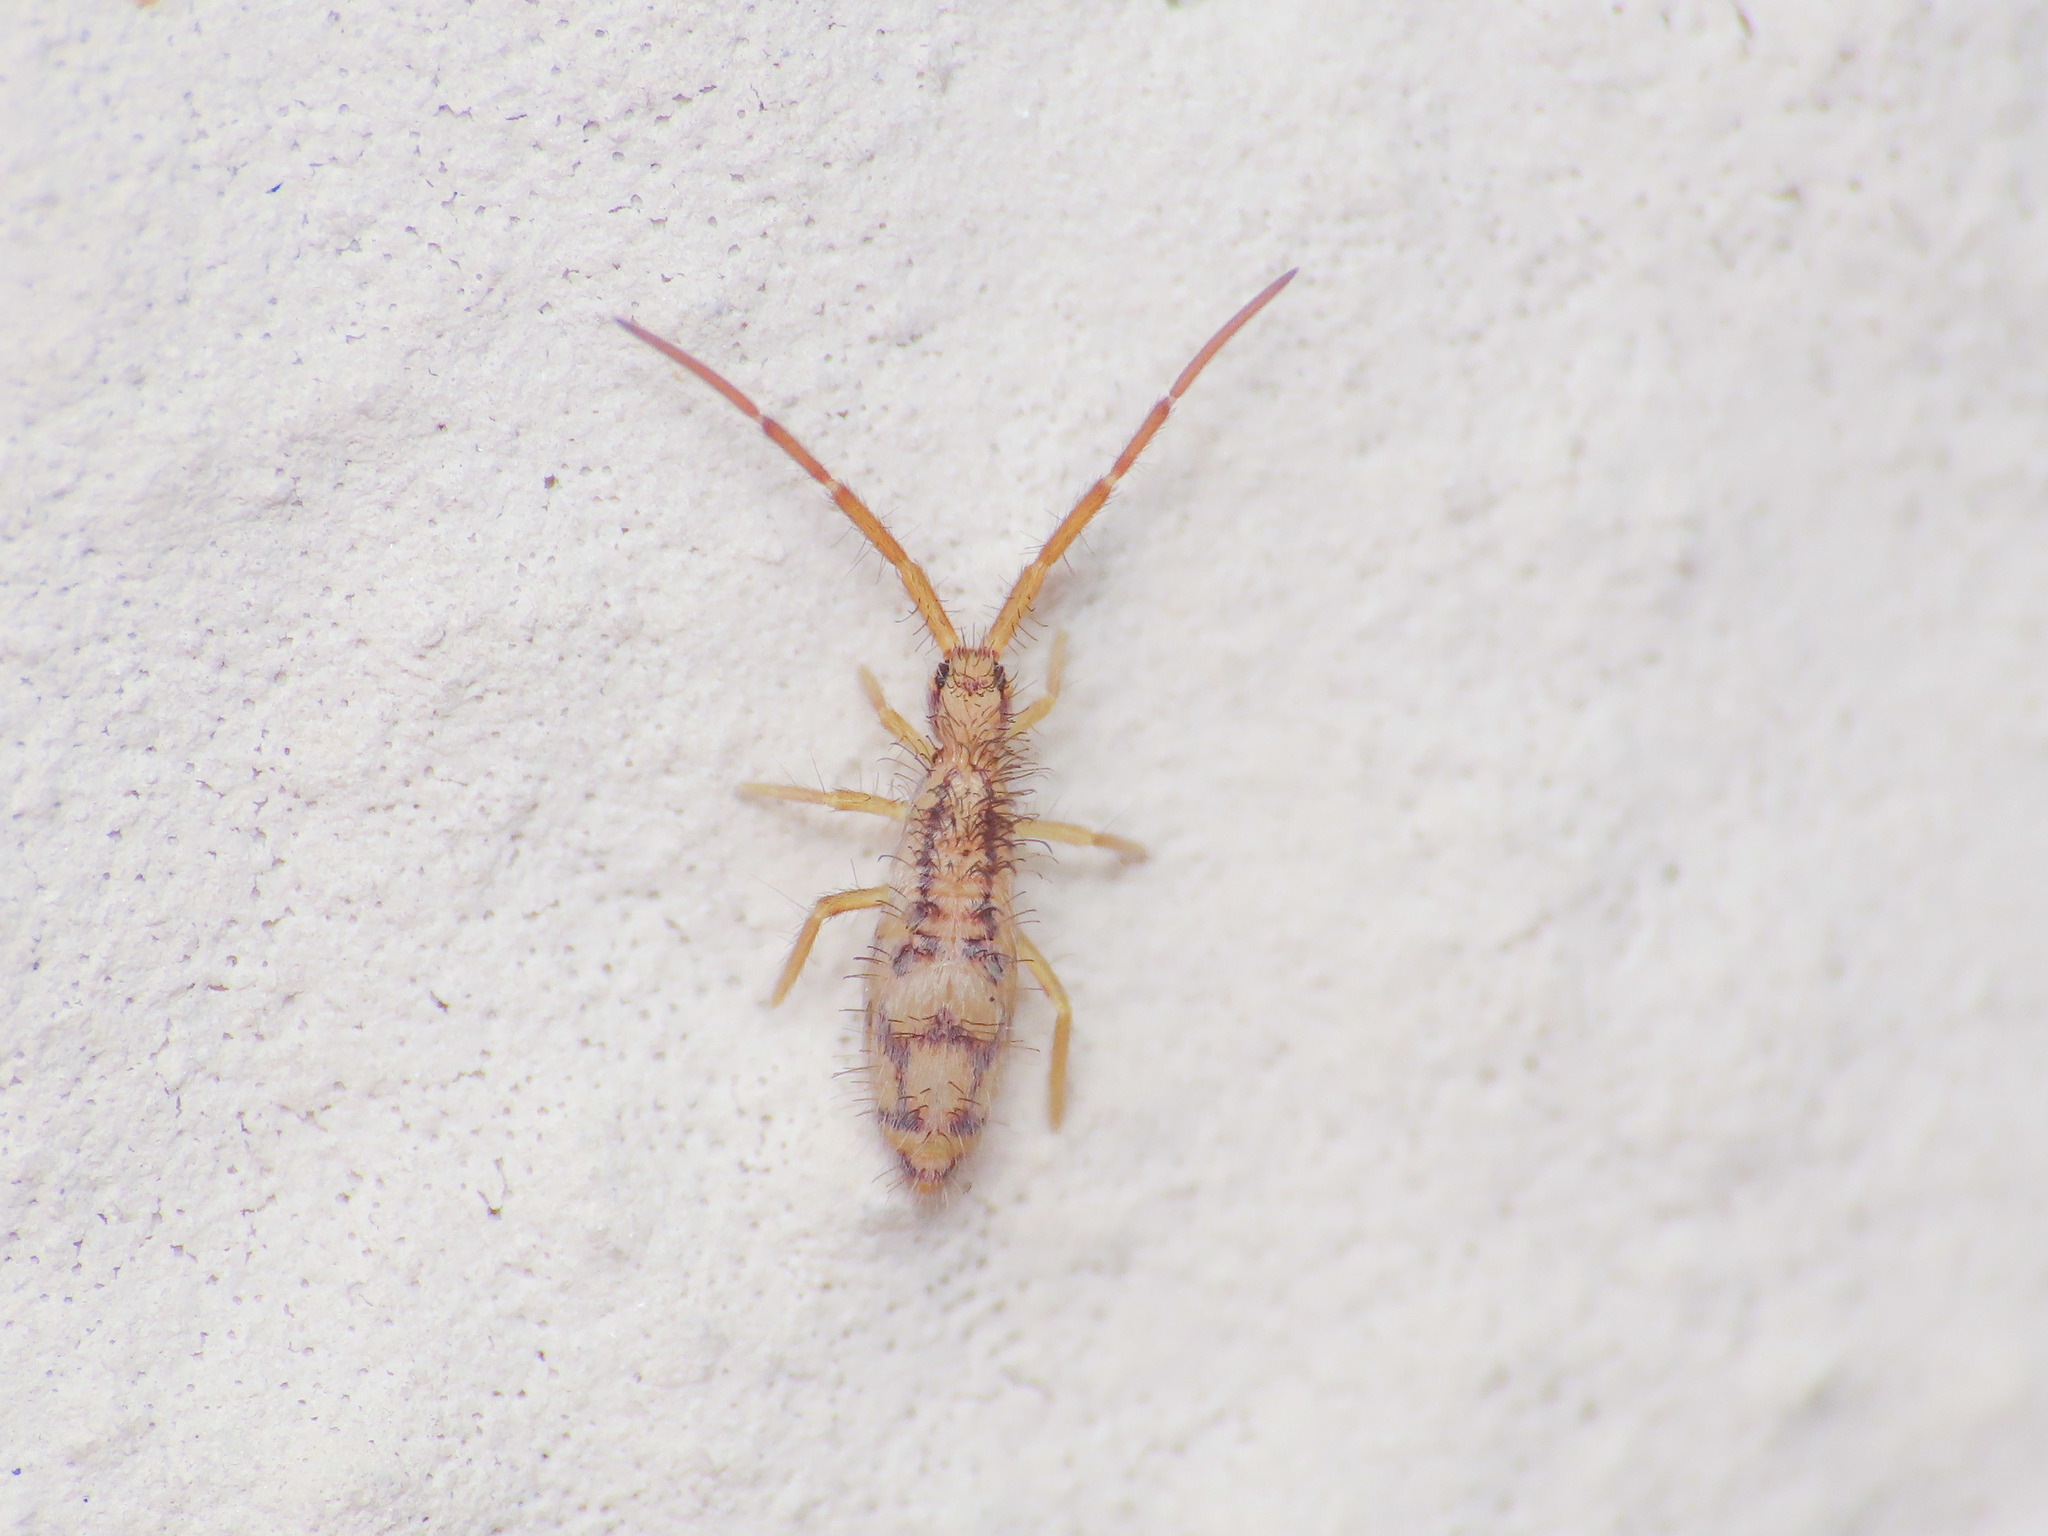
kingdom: Animalia
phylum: Arthropoda
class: Collembola
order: Entomobryomorpha
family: Entomobryidae
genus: Entomobrya
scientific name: Entomobrya muscorum
